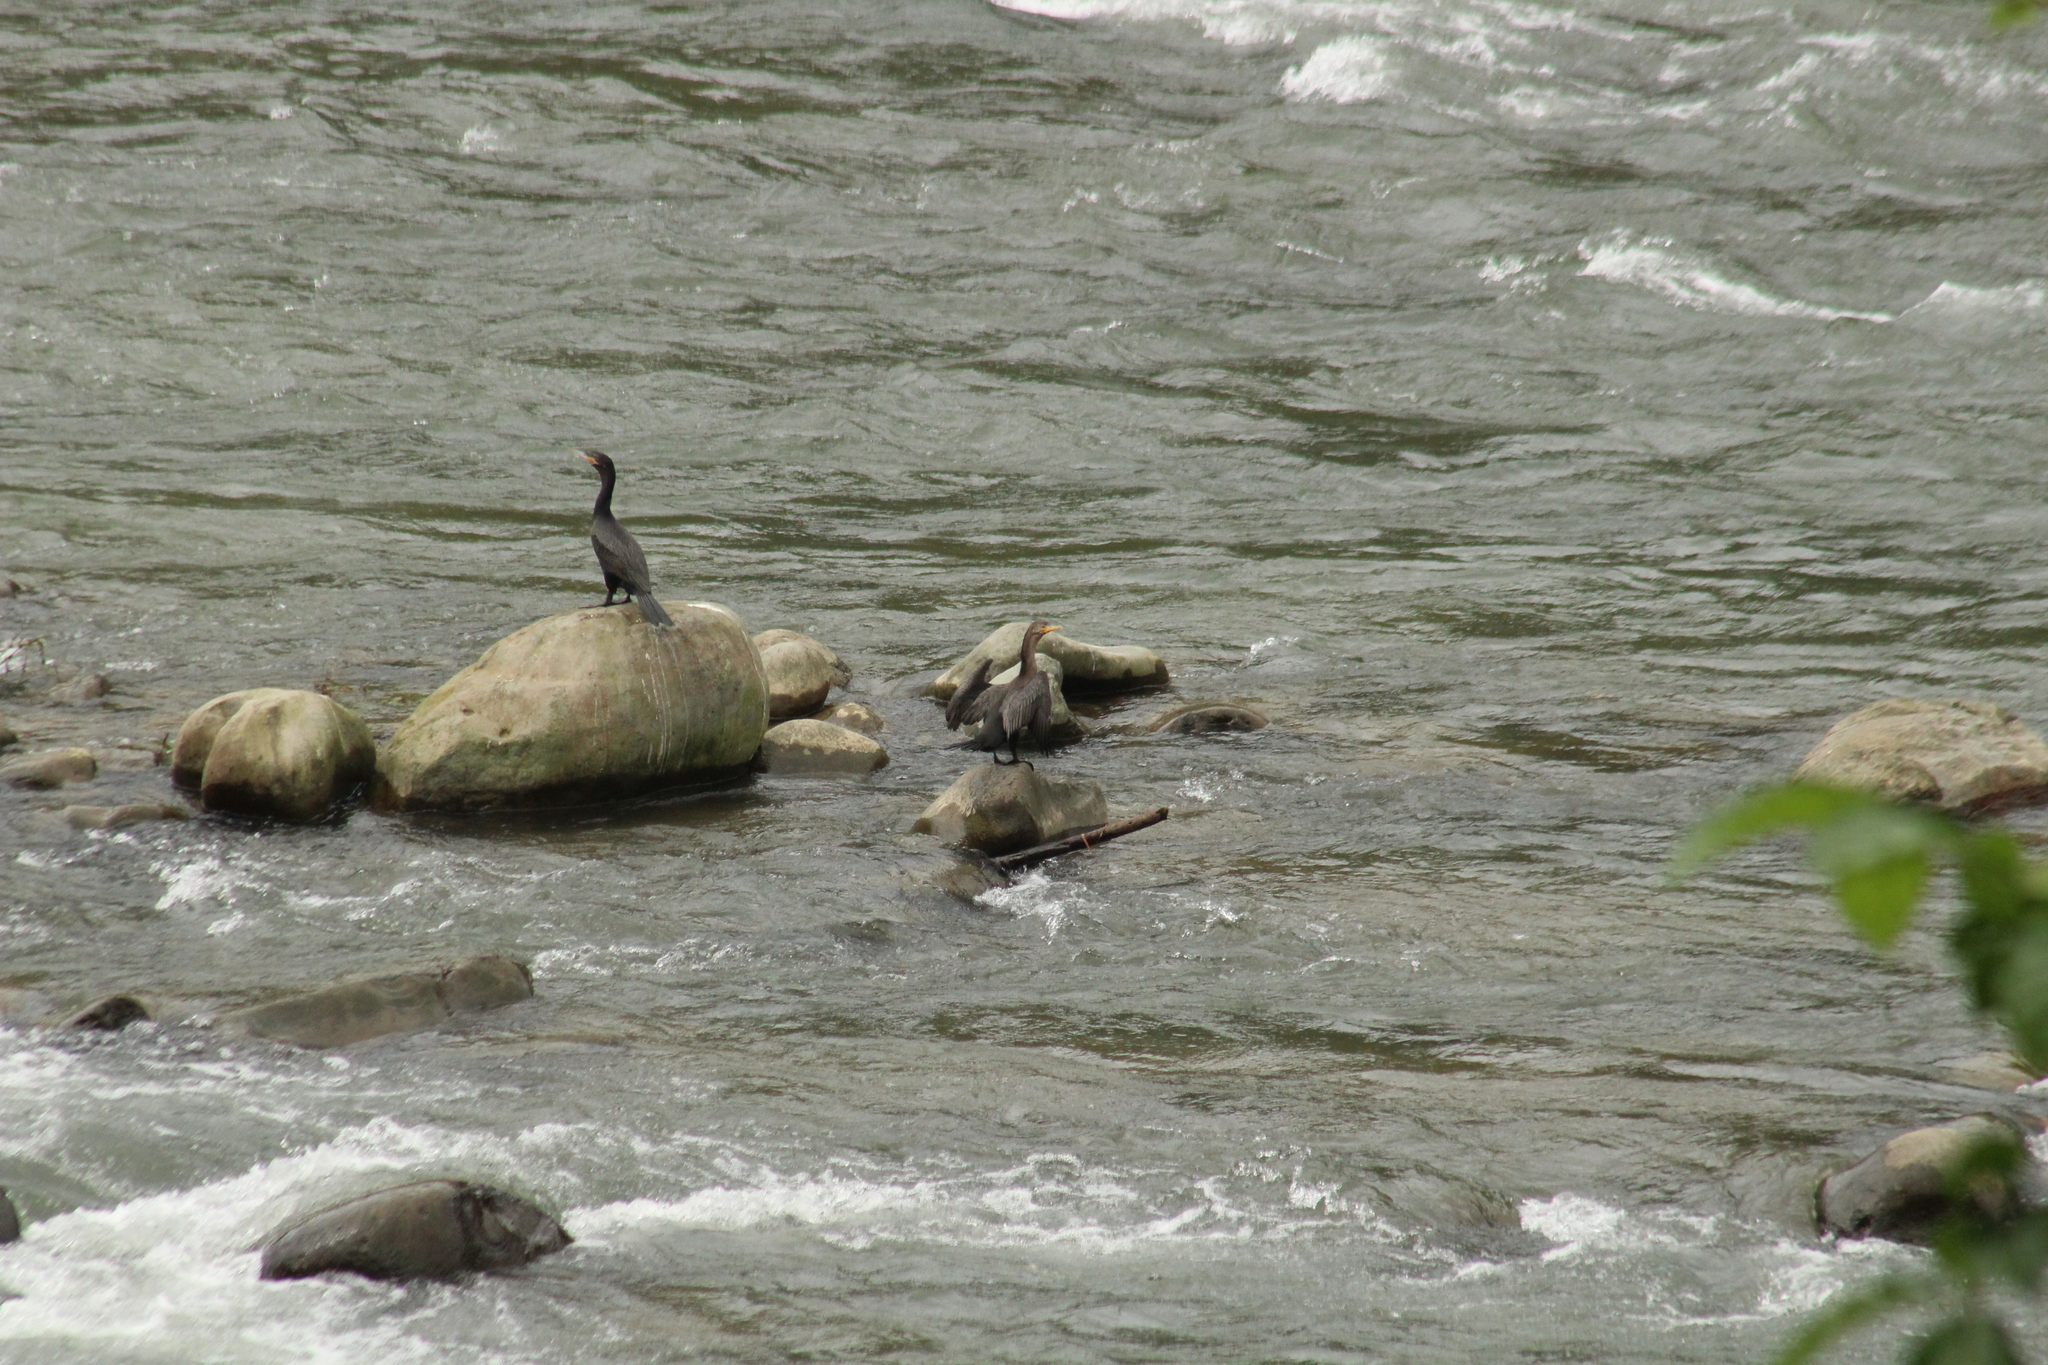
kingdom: Animalia
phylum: Chordata
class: Aves
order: Suliformes
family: Phalacrocoracidae
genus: Phalacrocorax
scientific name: Phalacrocorax brasilianus
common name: Neotropic cormorant
